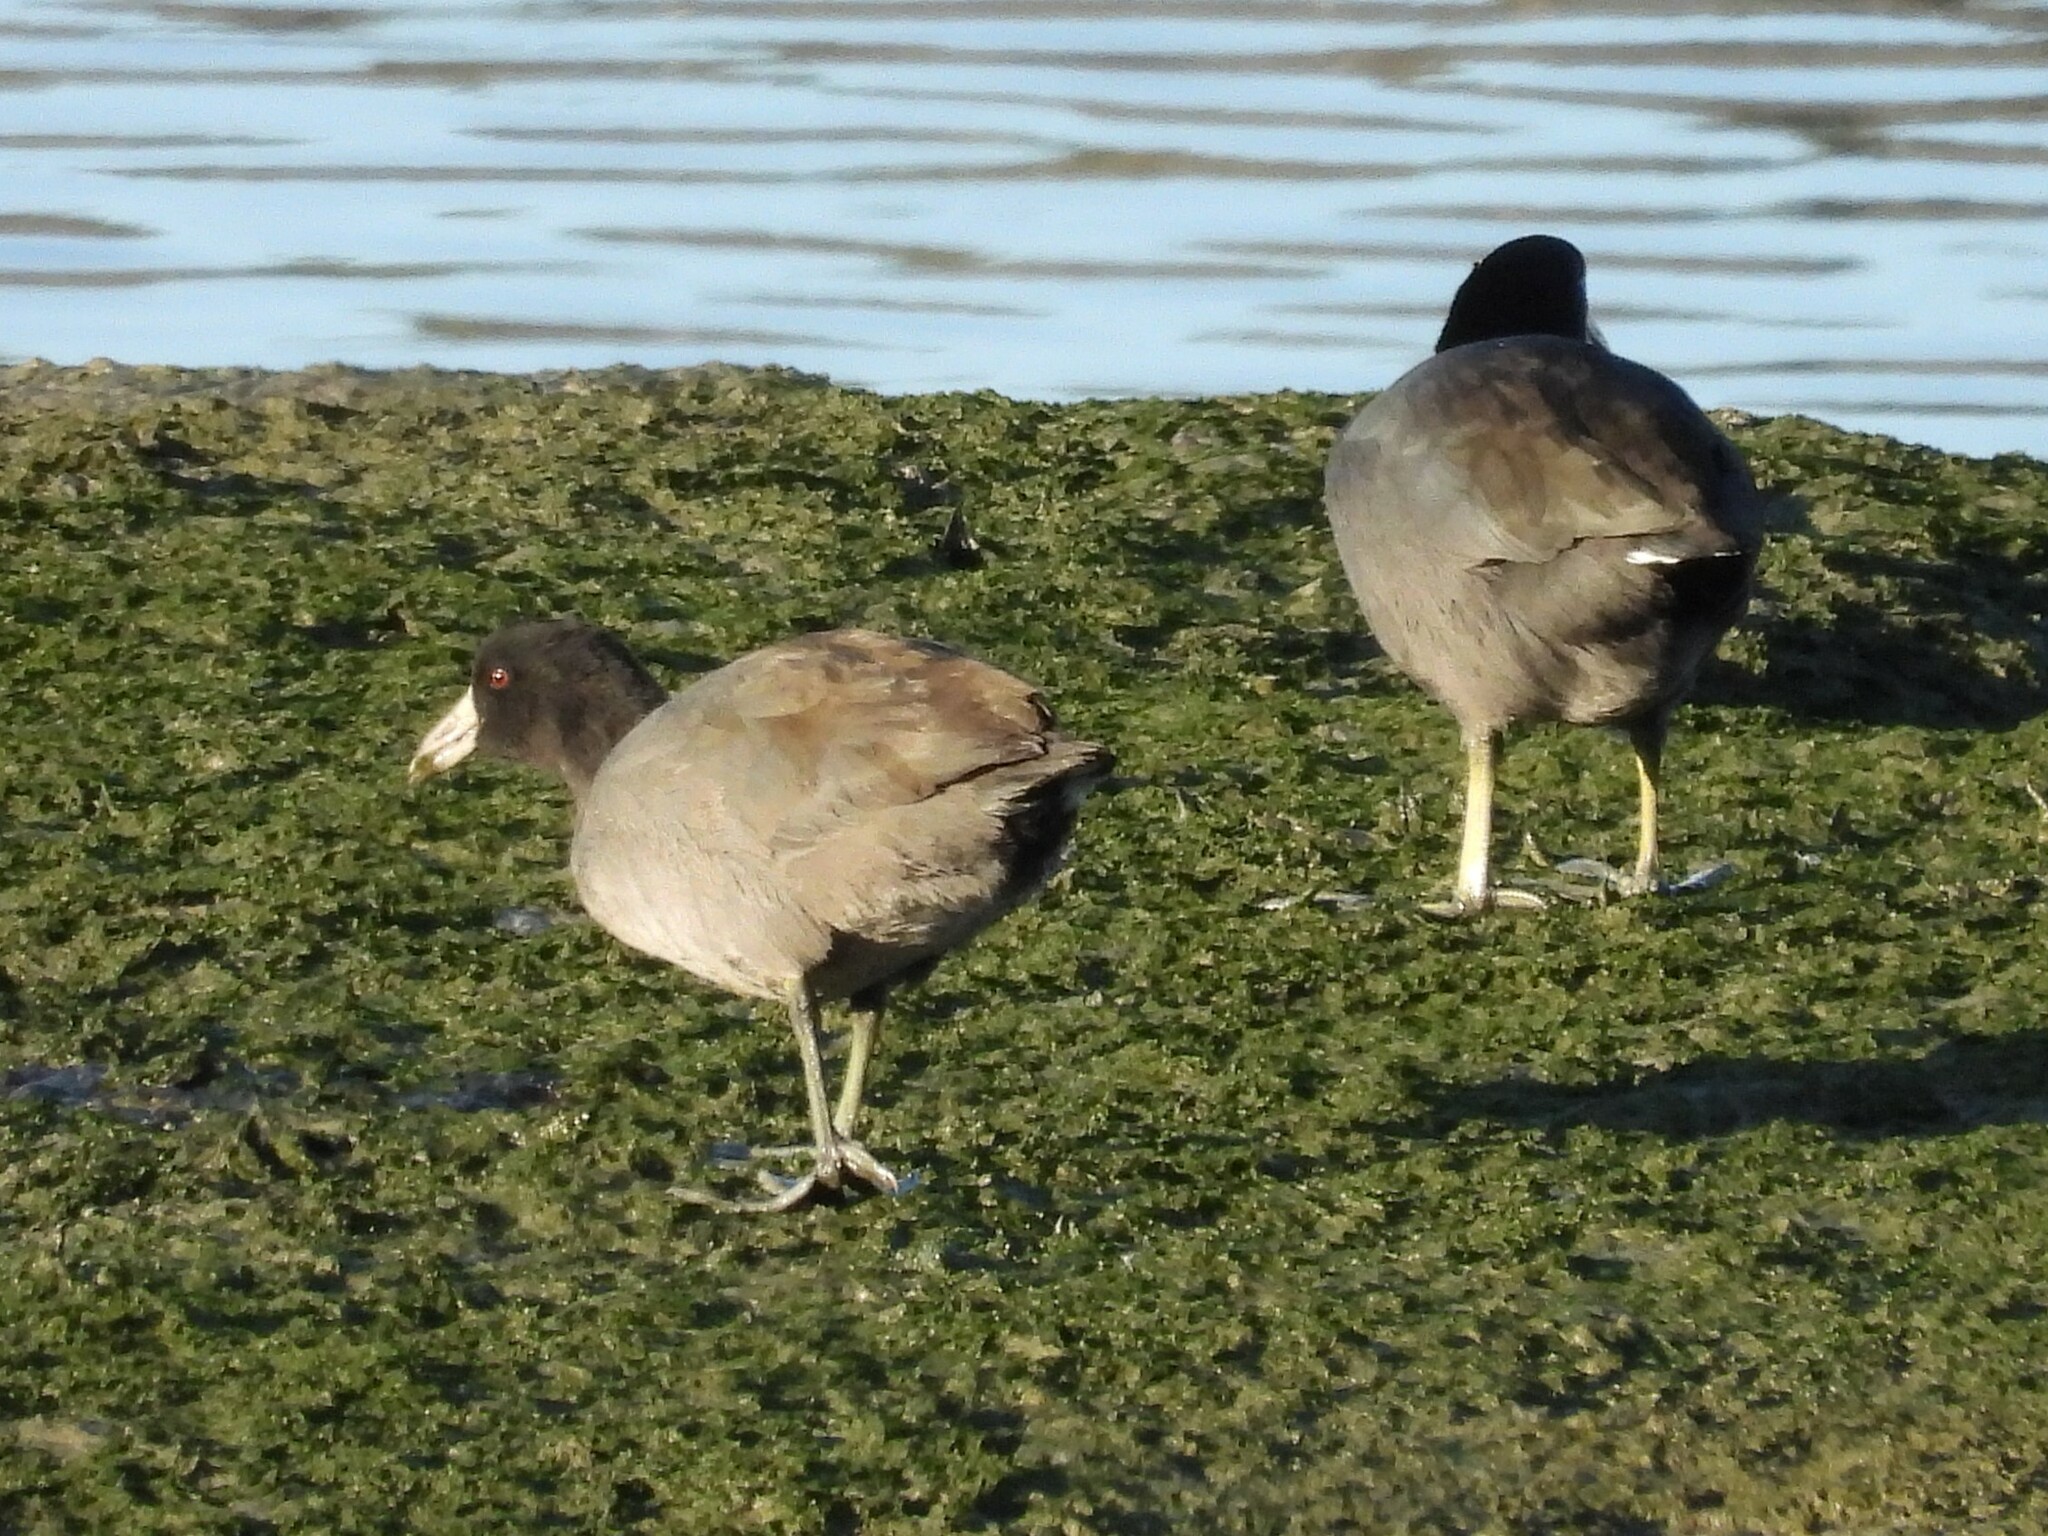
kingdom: Animalia
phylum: Chordata
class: Aves
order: Gruiformes
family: Rallidae
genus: Fulica
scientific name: Fulica americana
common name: American coot
